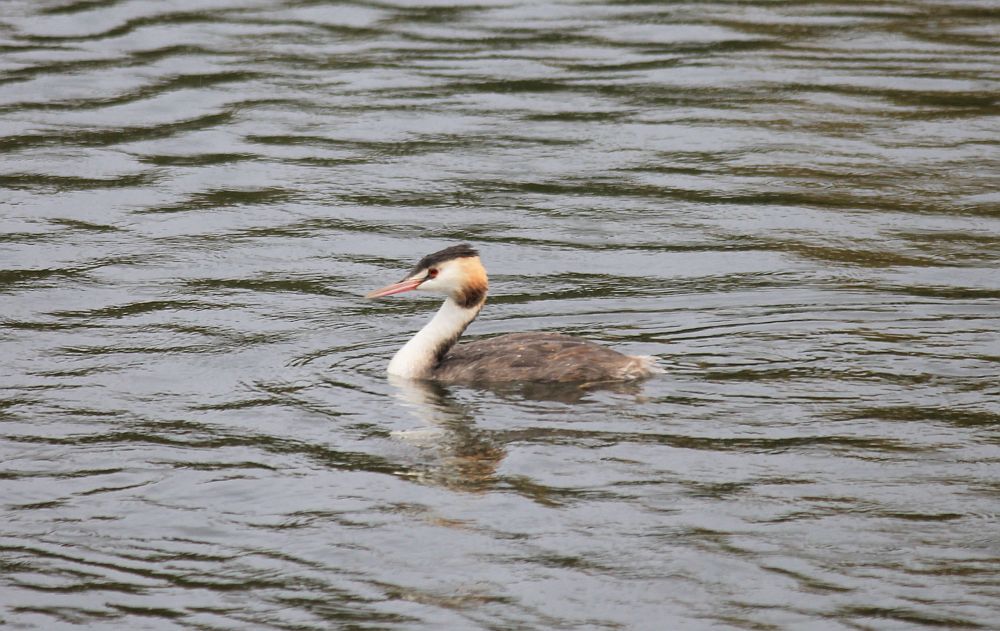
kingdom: Animalia
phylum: Chordata
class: Aves
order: Podicipediformes
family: Podicipedidae
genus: Podiceps
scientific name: Podiceps cristatus
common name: Great crested grebe
